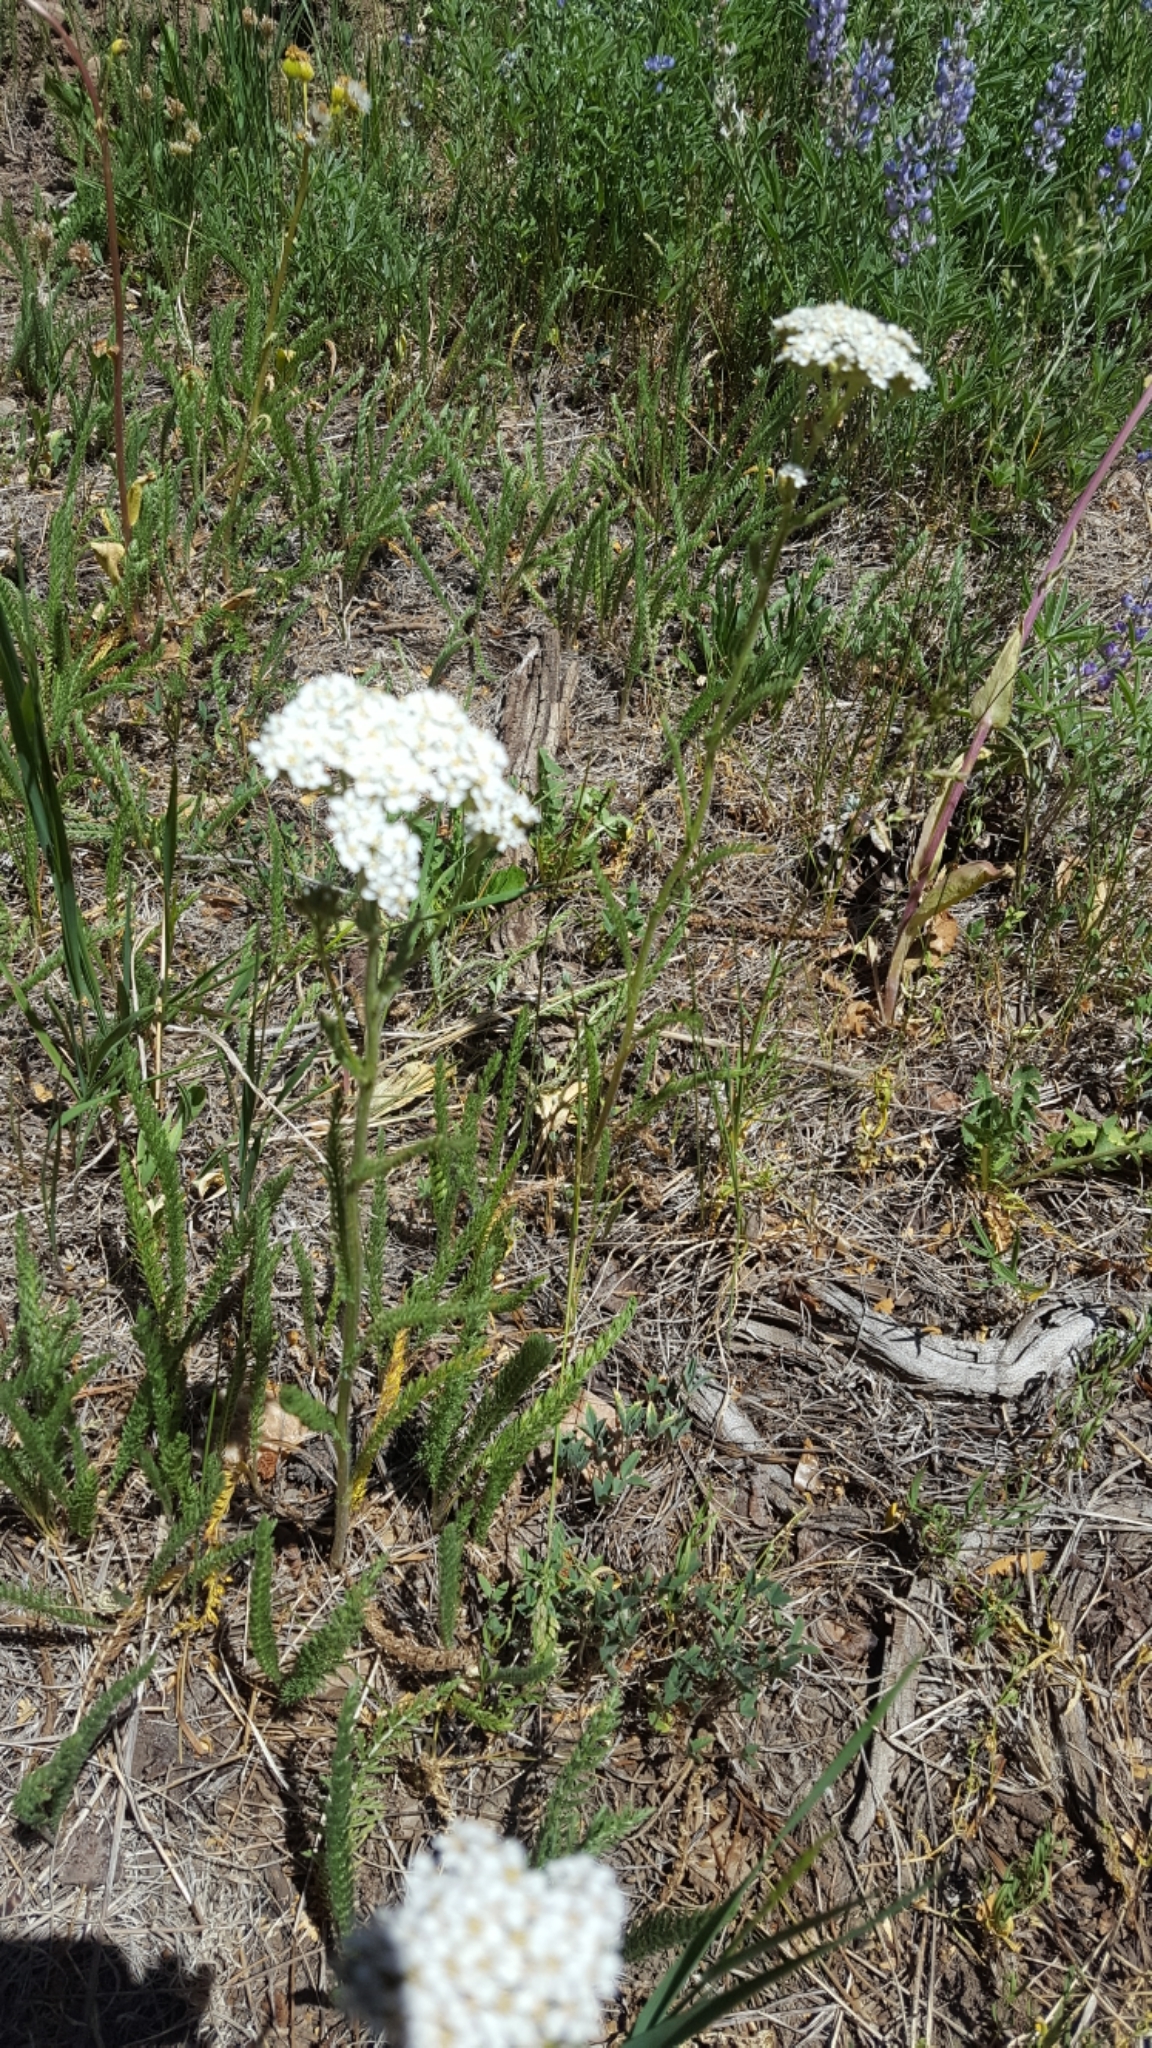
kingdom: Plantae
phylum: Tracheophyta
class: Magnoliopsida
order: Asterales
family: Asteraceae
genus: Achillea
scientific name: Achillea millefolium
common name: Yarrow
